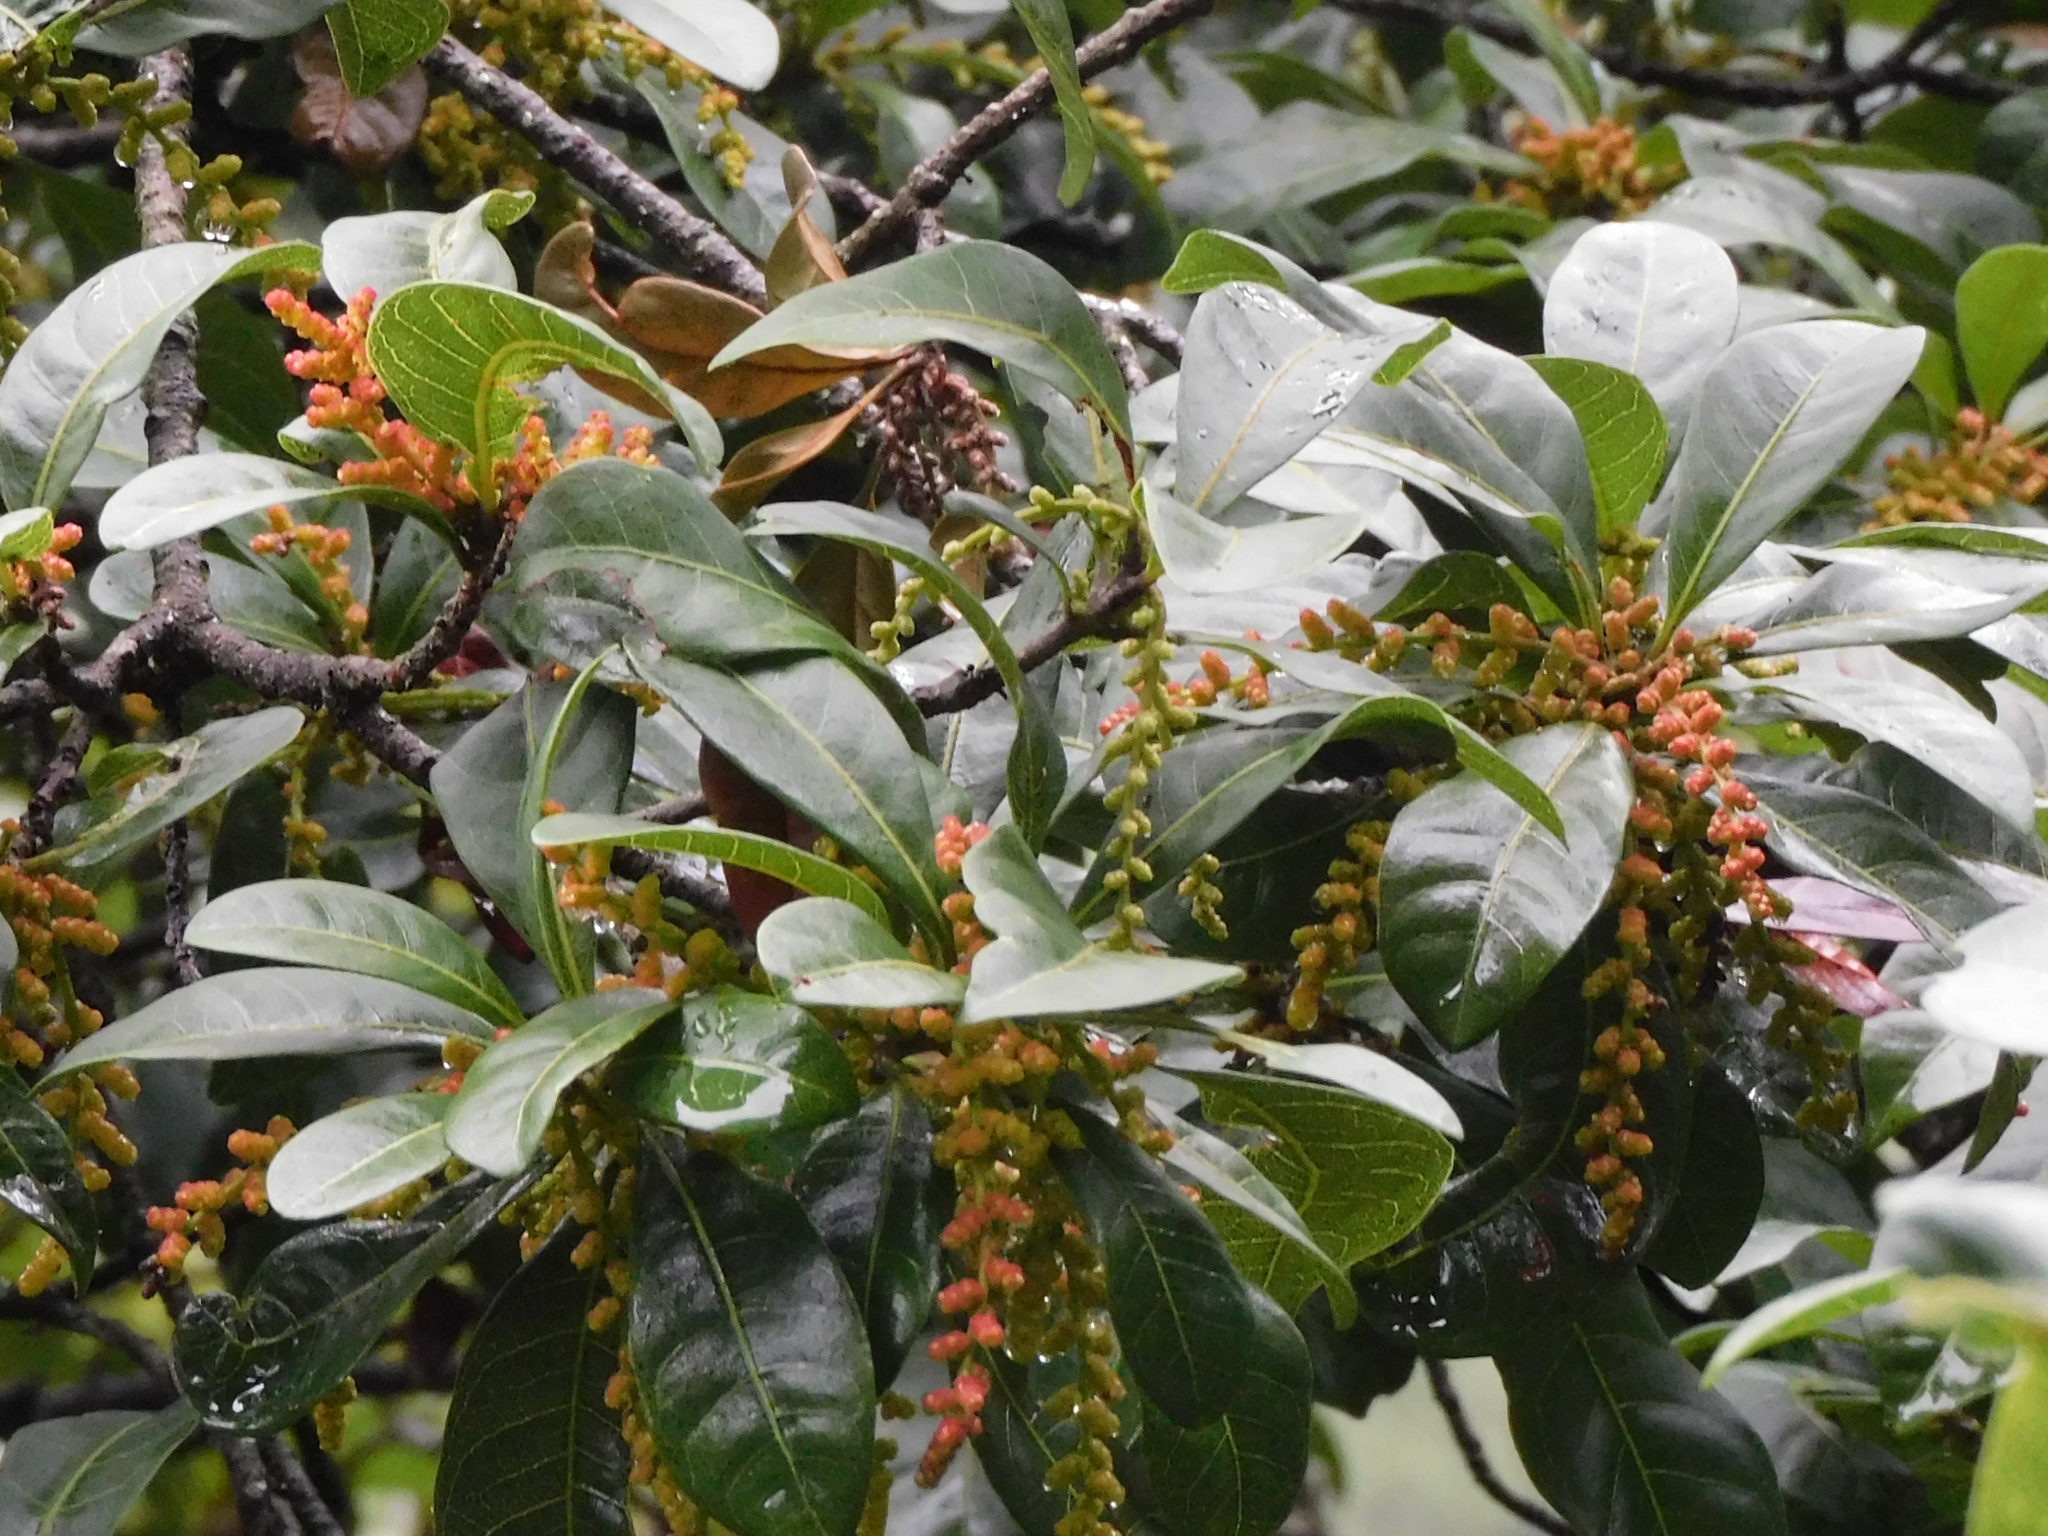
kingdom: Plantae
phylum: Tracheophyta
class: Magnoliopsida
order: Fagales
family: Myricaceae
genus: Morella
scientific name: Morella esculenta
